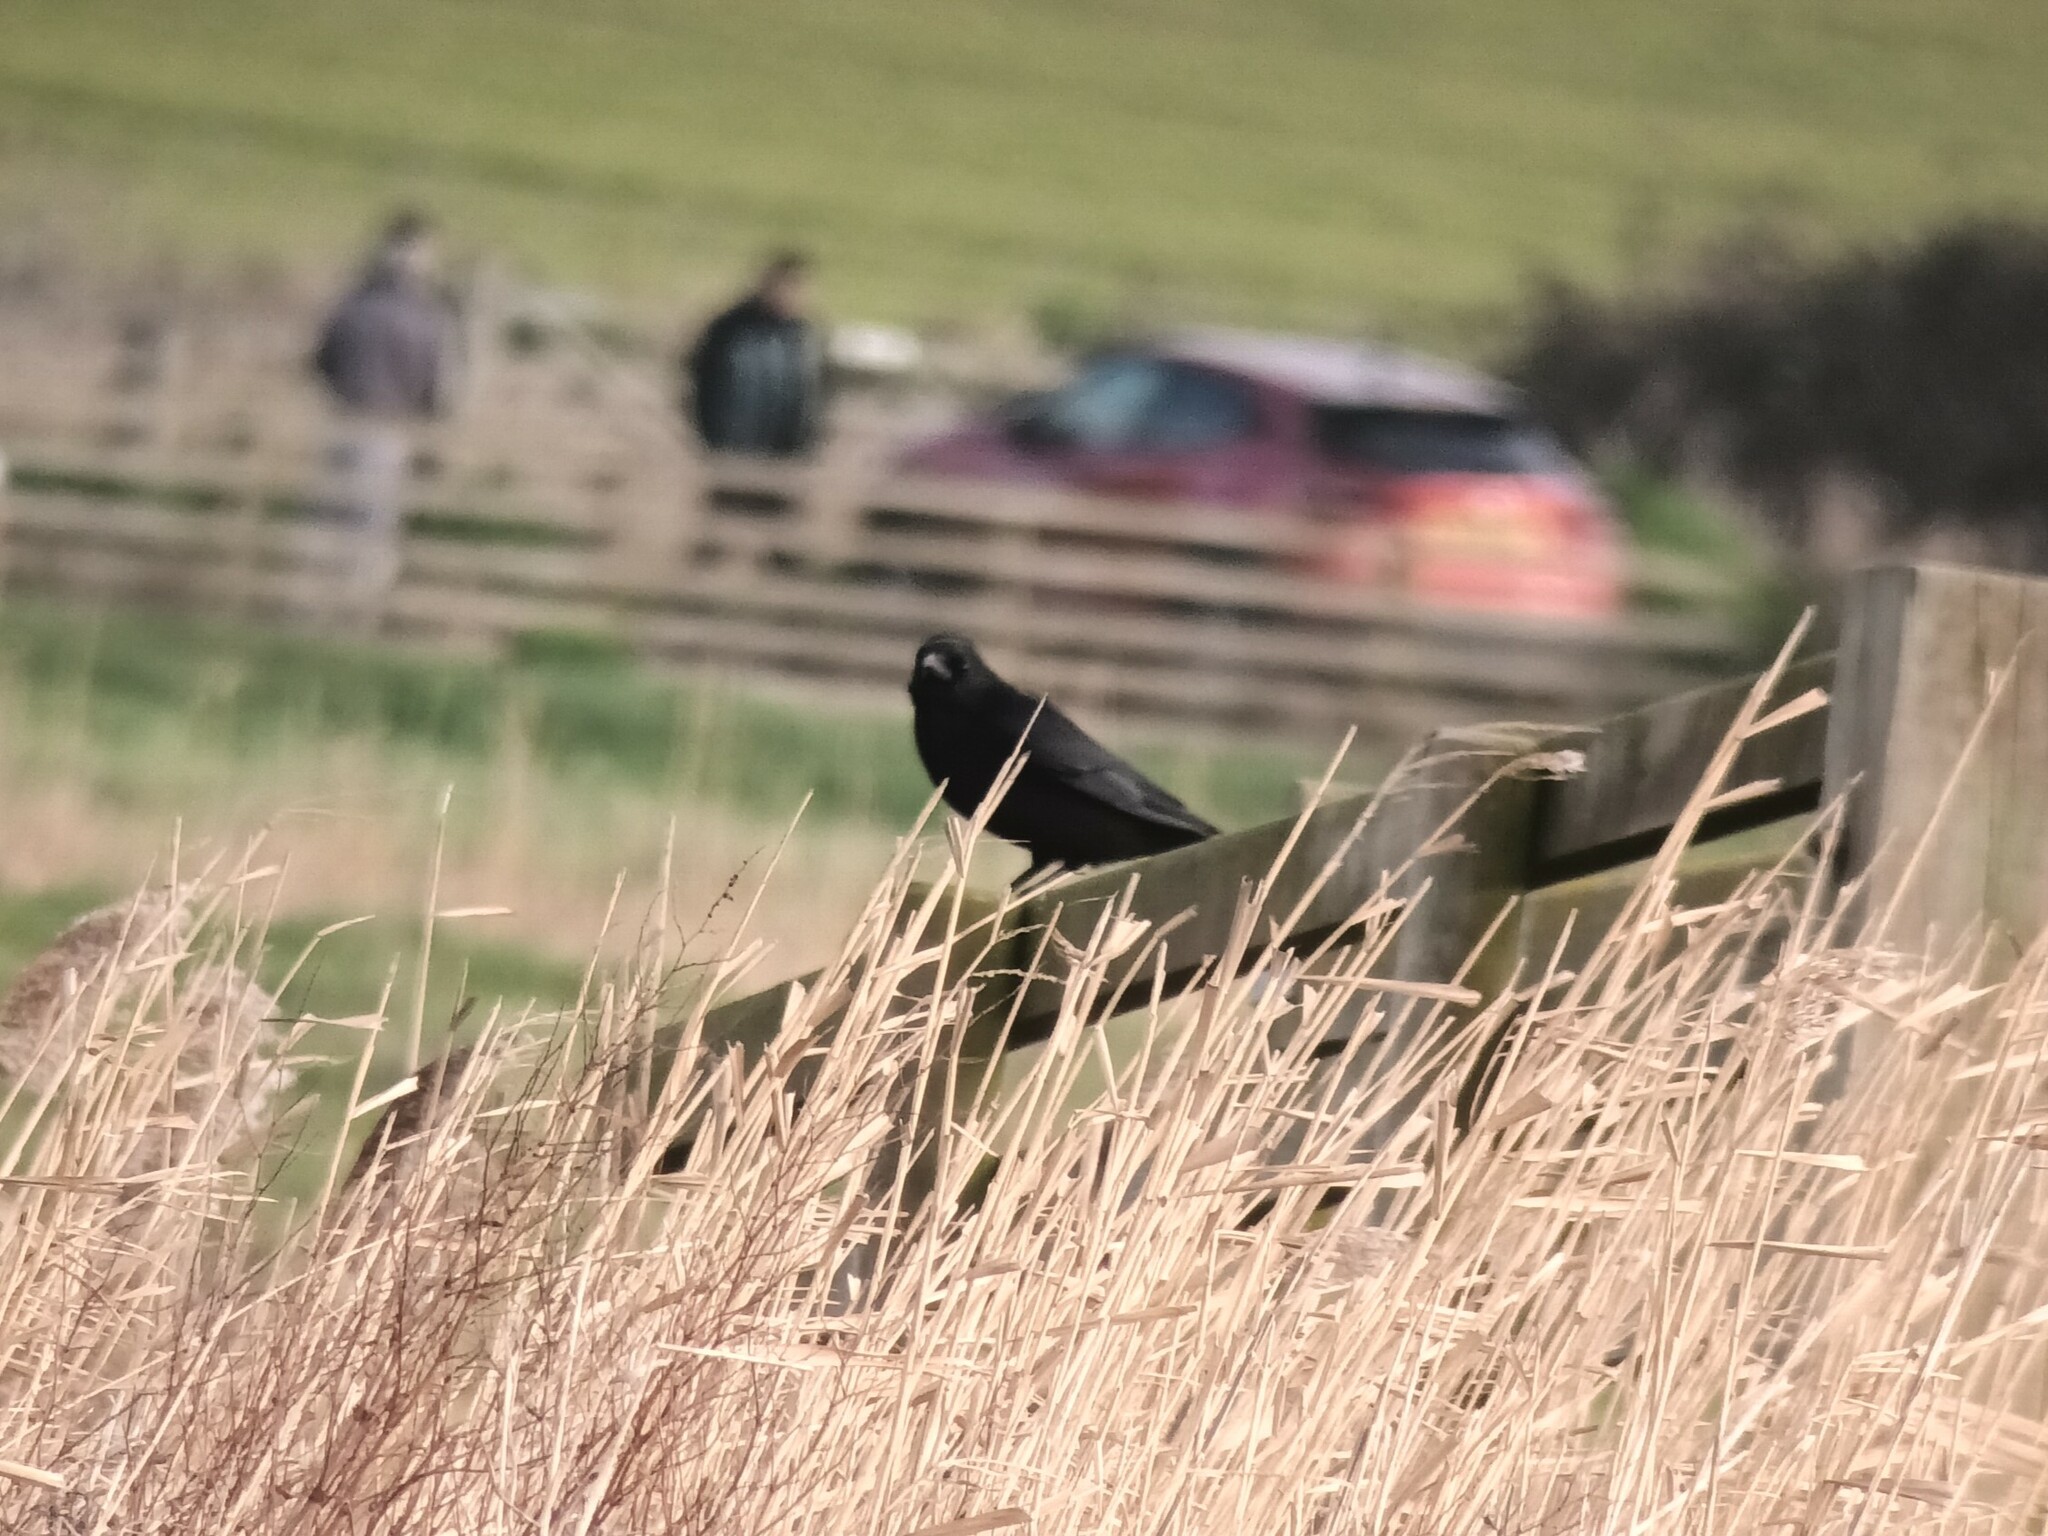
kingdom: Animalia
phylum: Chordata
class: Aves
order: Passeriformes
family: Corvidae
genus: Corvus
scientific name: Corvus corone
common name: Carrion crow
